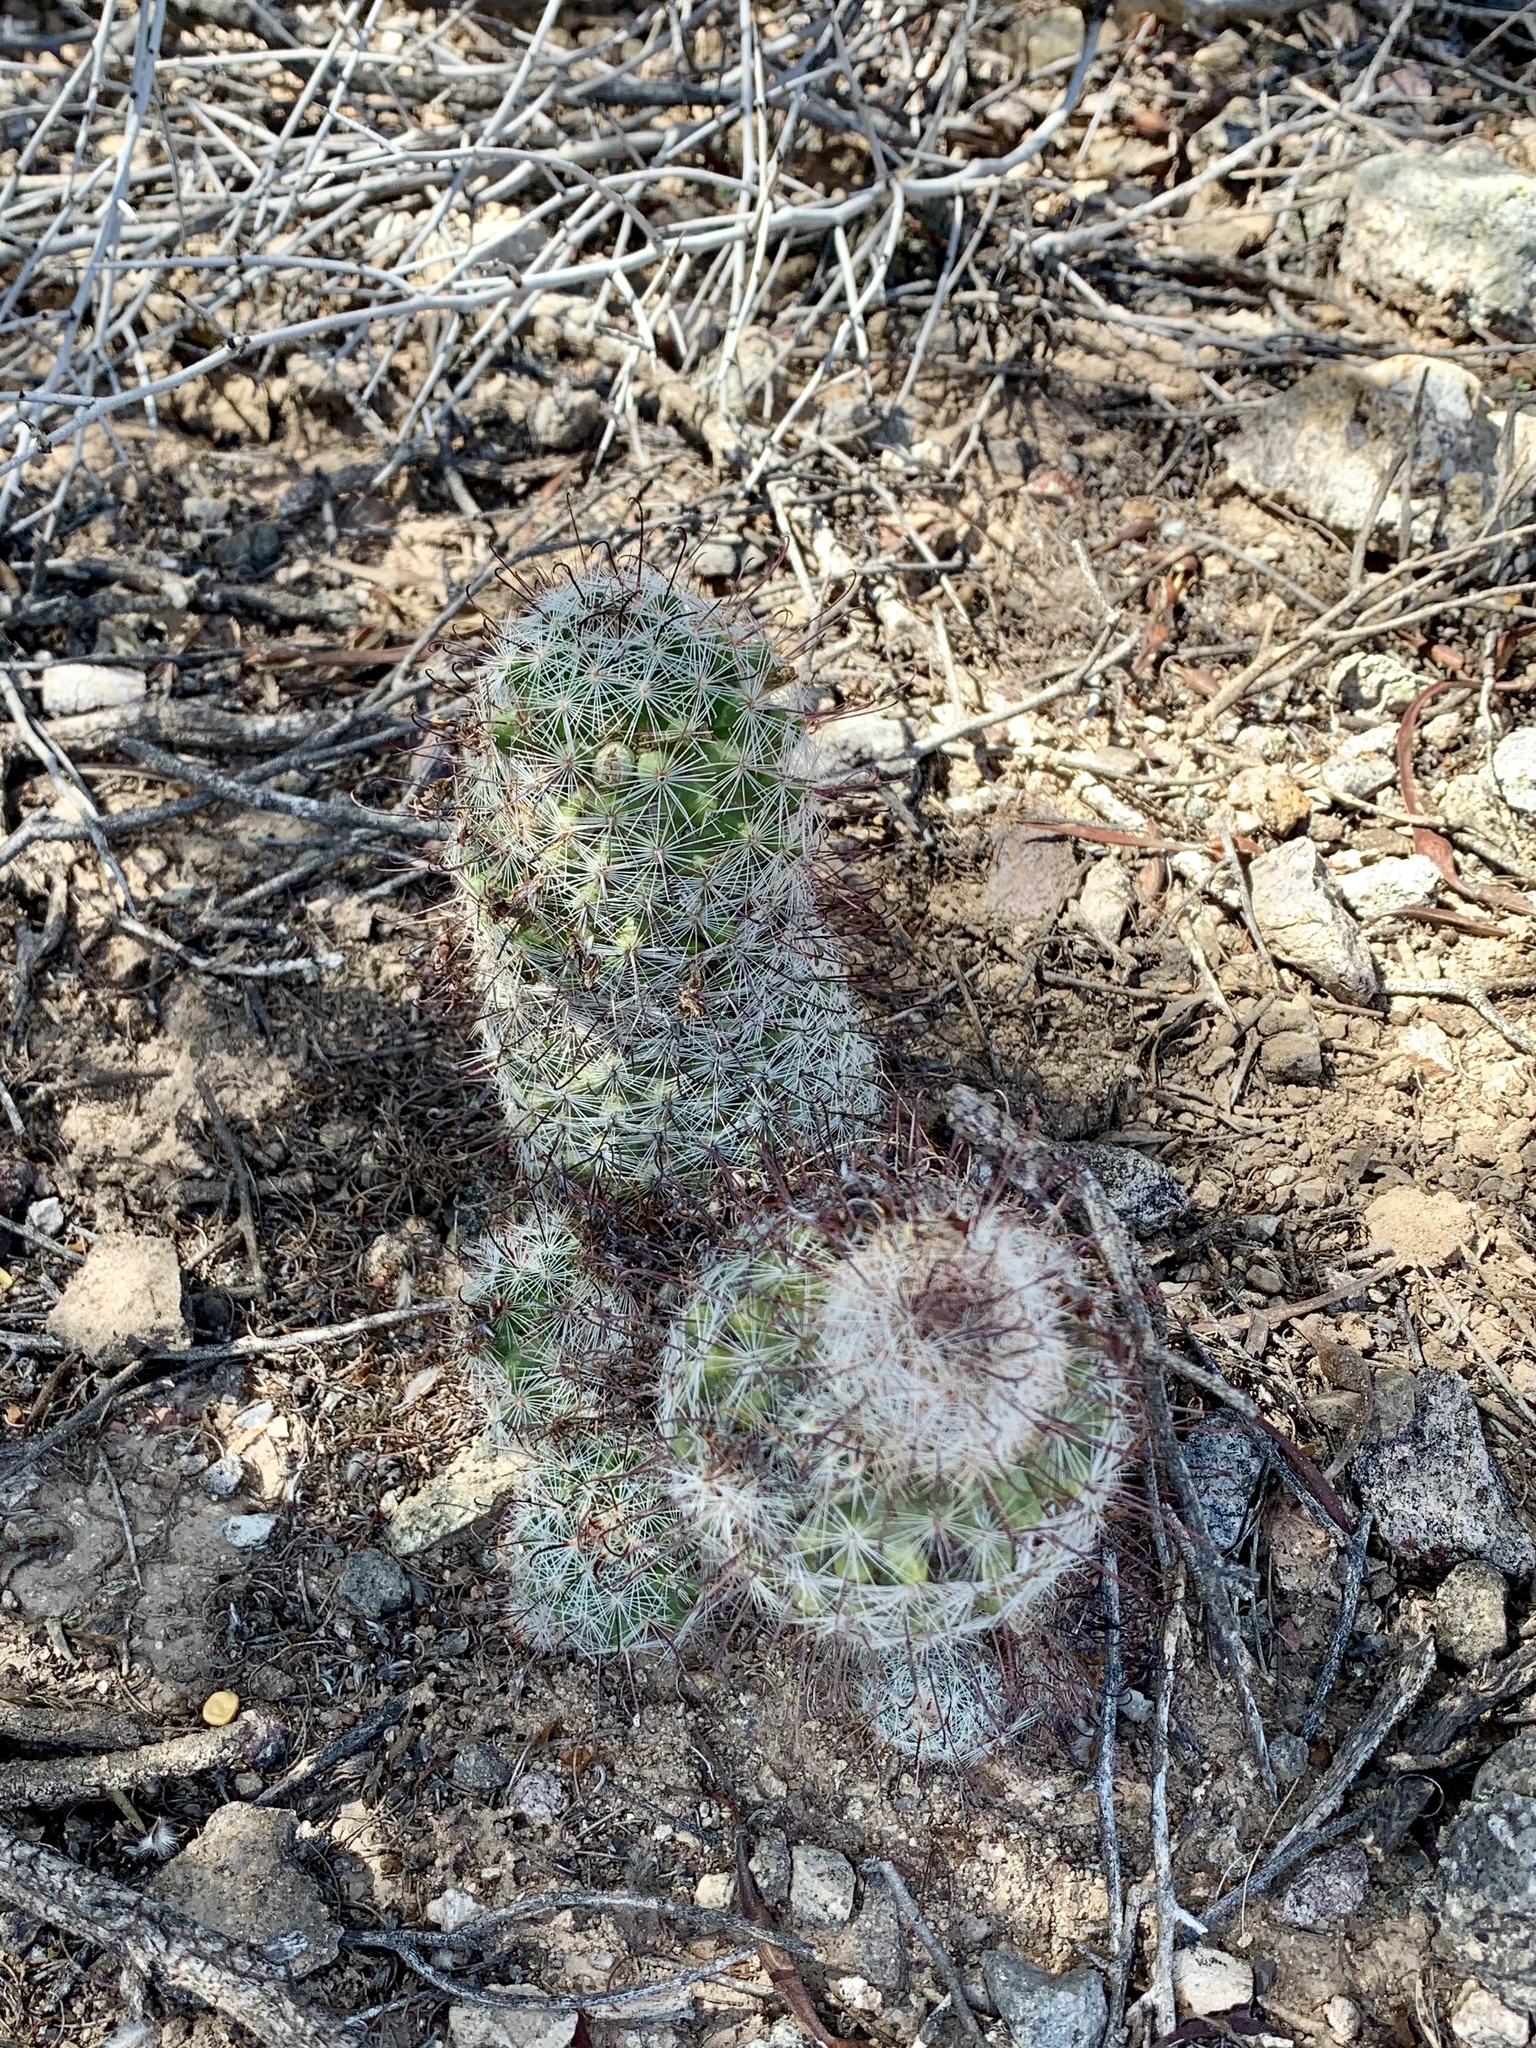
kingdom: Plantae
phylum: Tracheophyta
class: Magnoliopsida
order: Caryophyllales
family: Cactaceae
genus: Cochemiea
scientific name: Cochemiea grahamii
